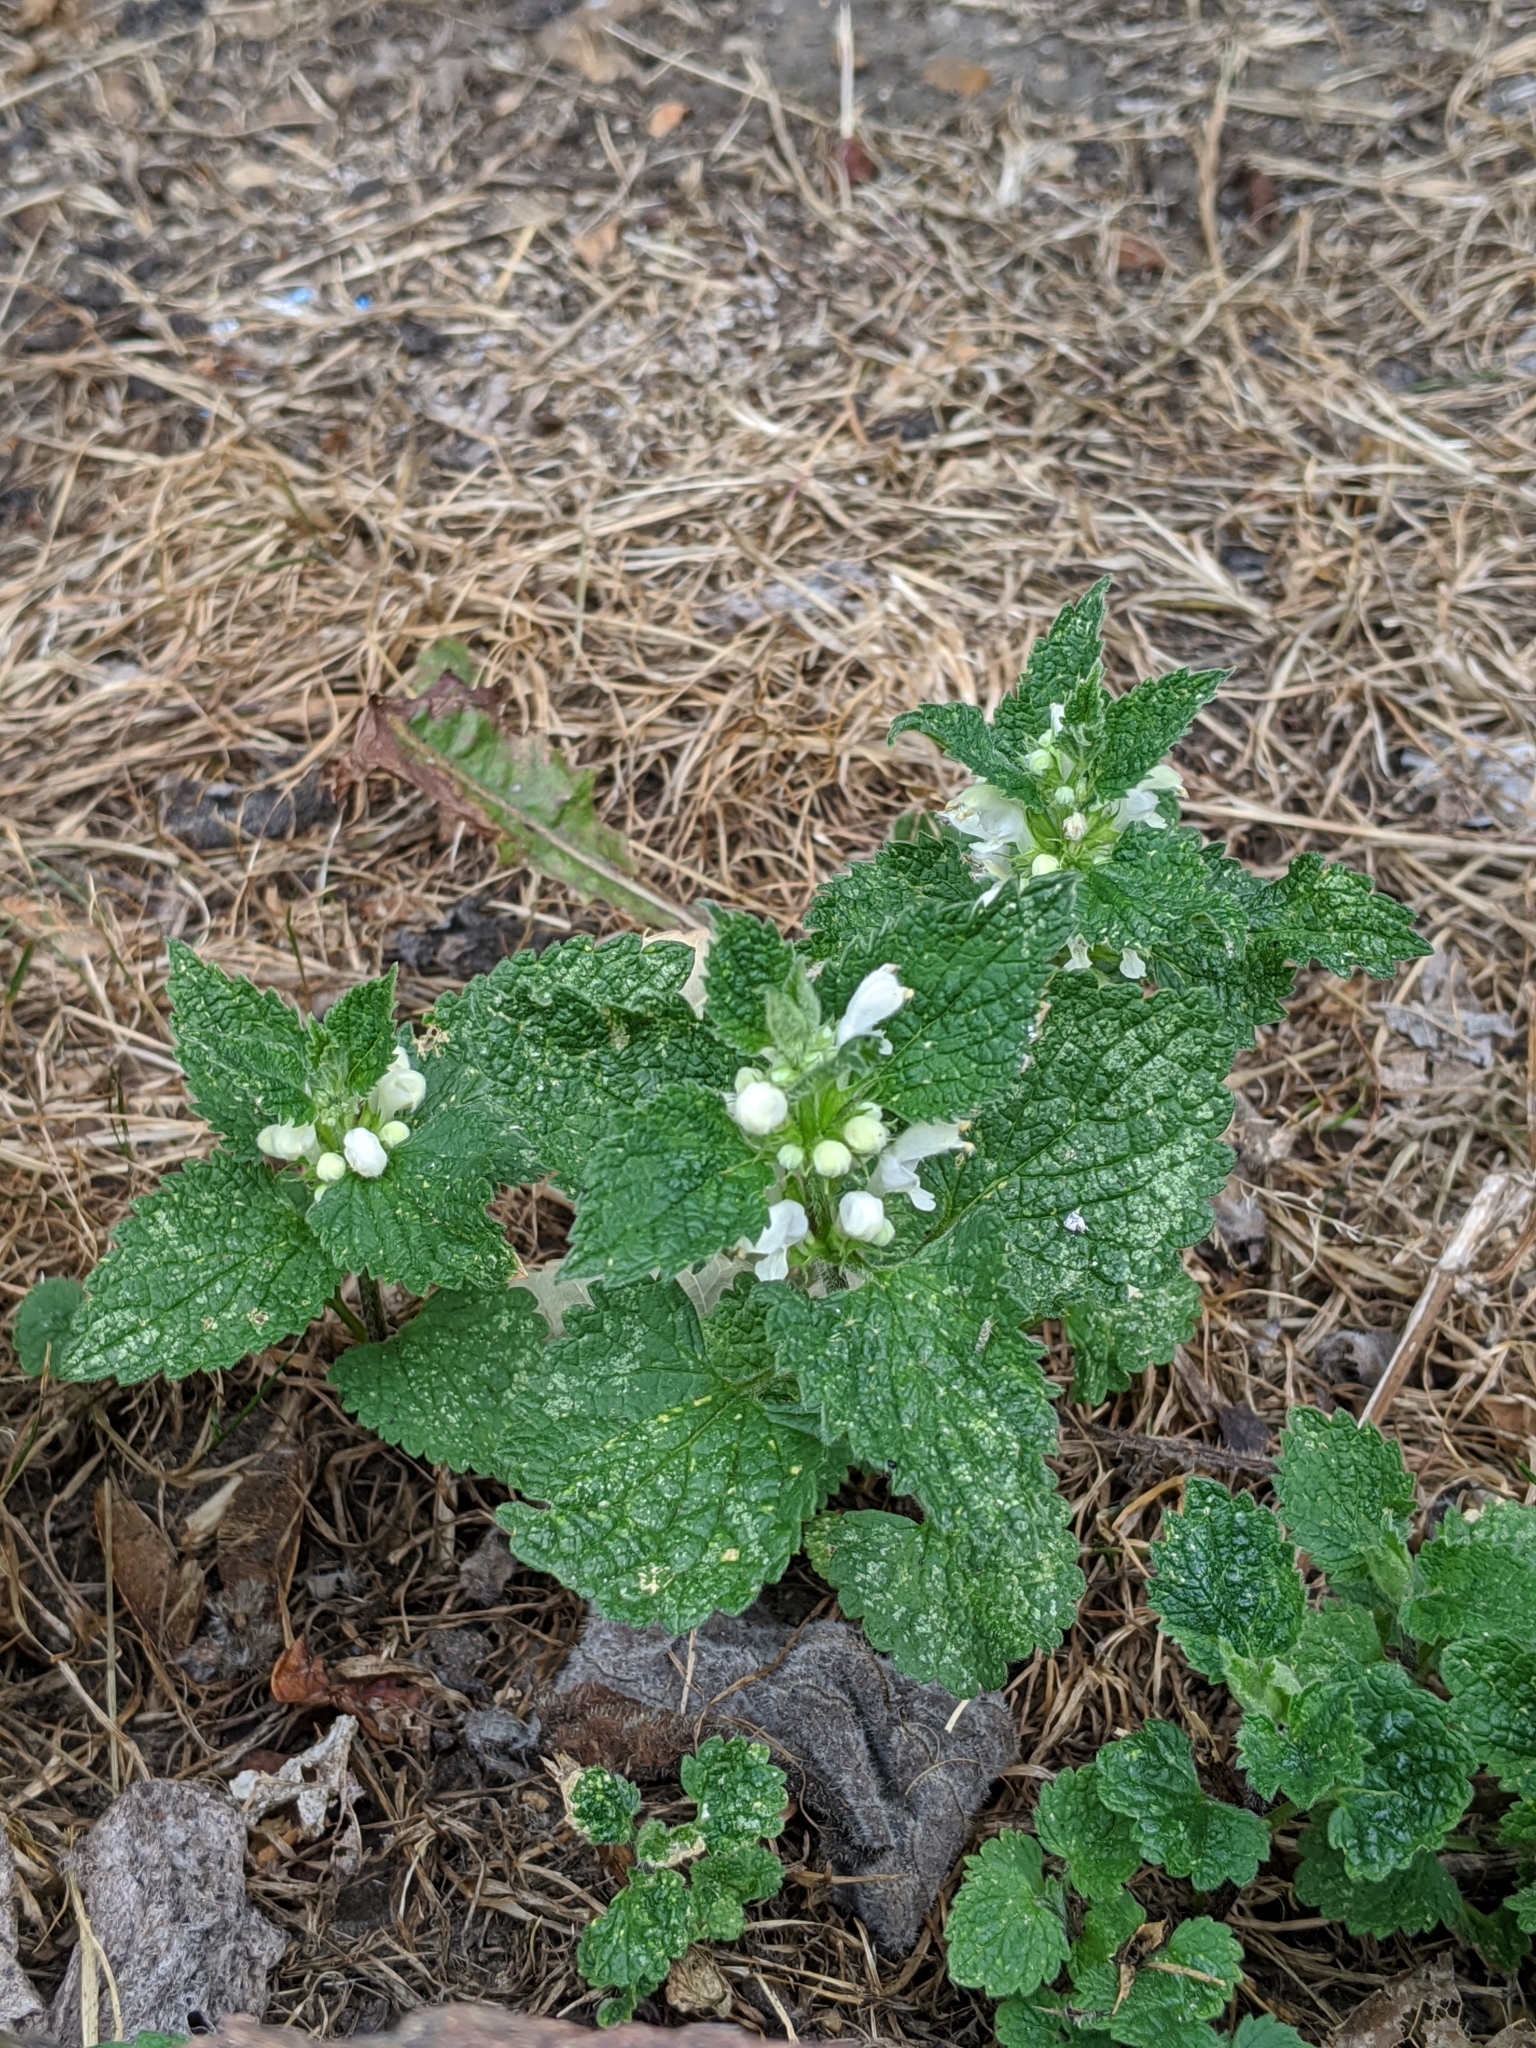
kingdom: Plantae
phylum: Tracheophyta
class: Magnoliopsida
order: Lamiales
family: Lamiaceae
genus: Lamium
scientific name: Lamium album
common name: White dead-nettle
